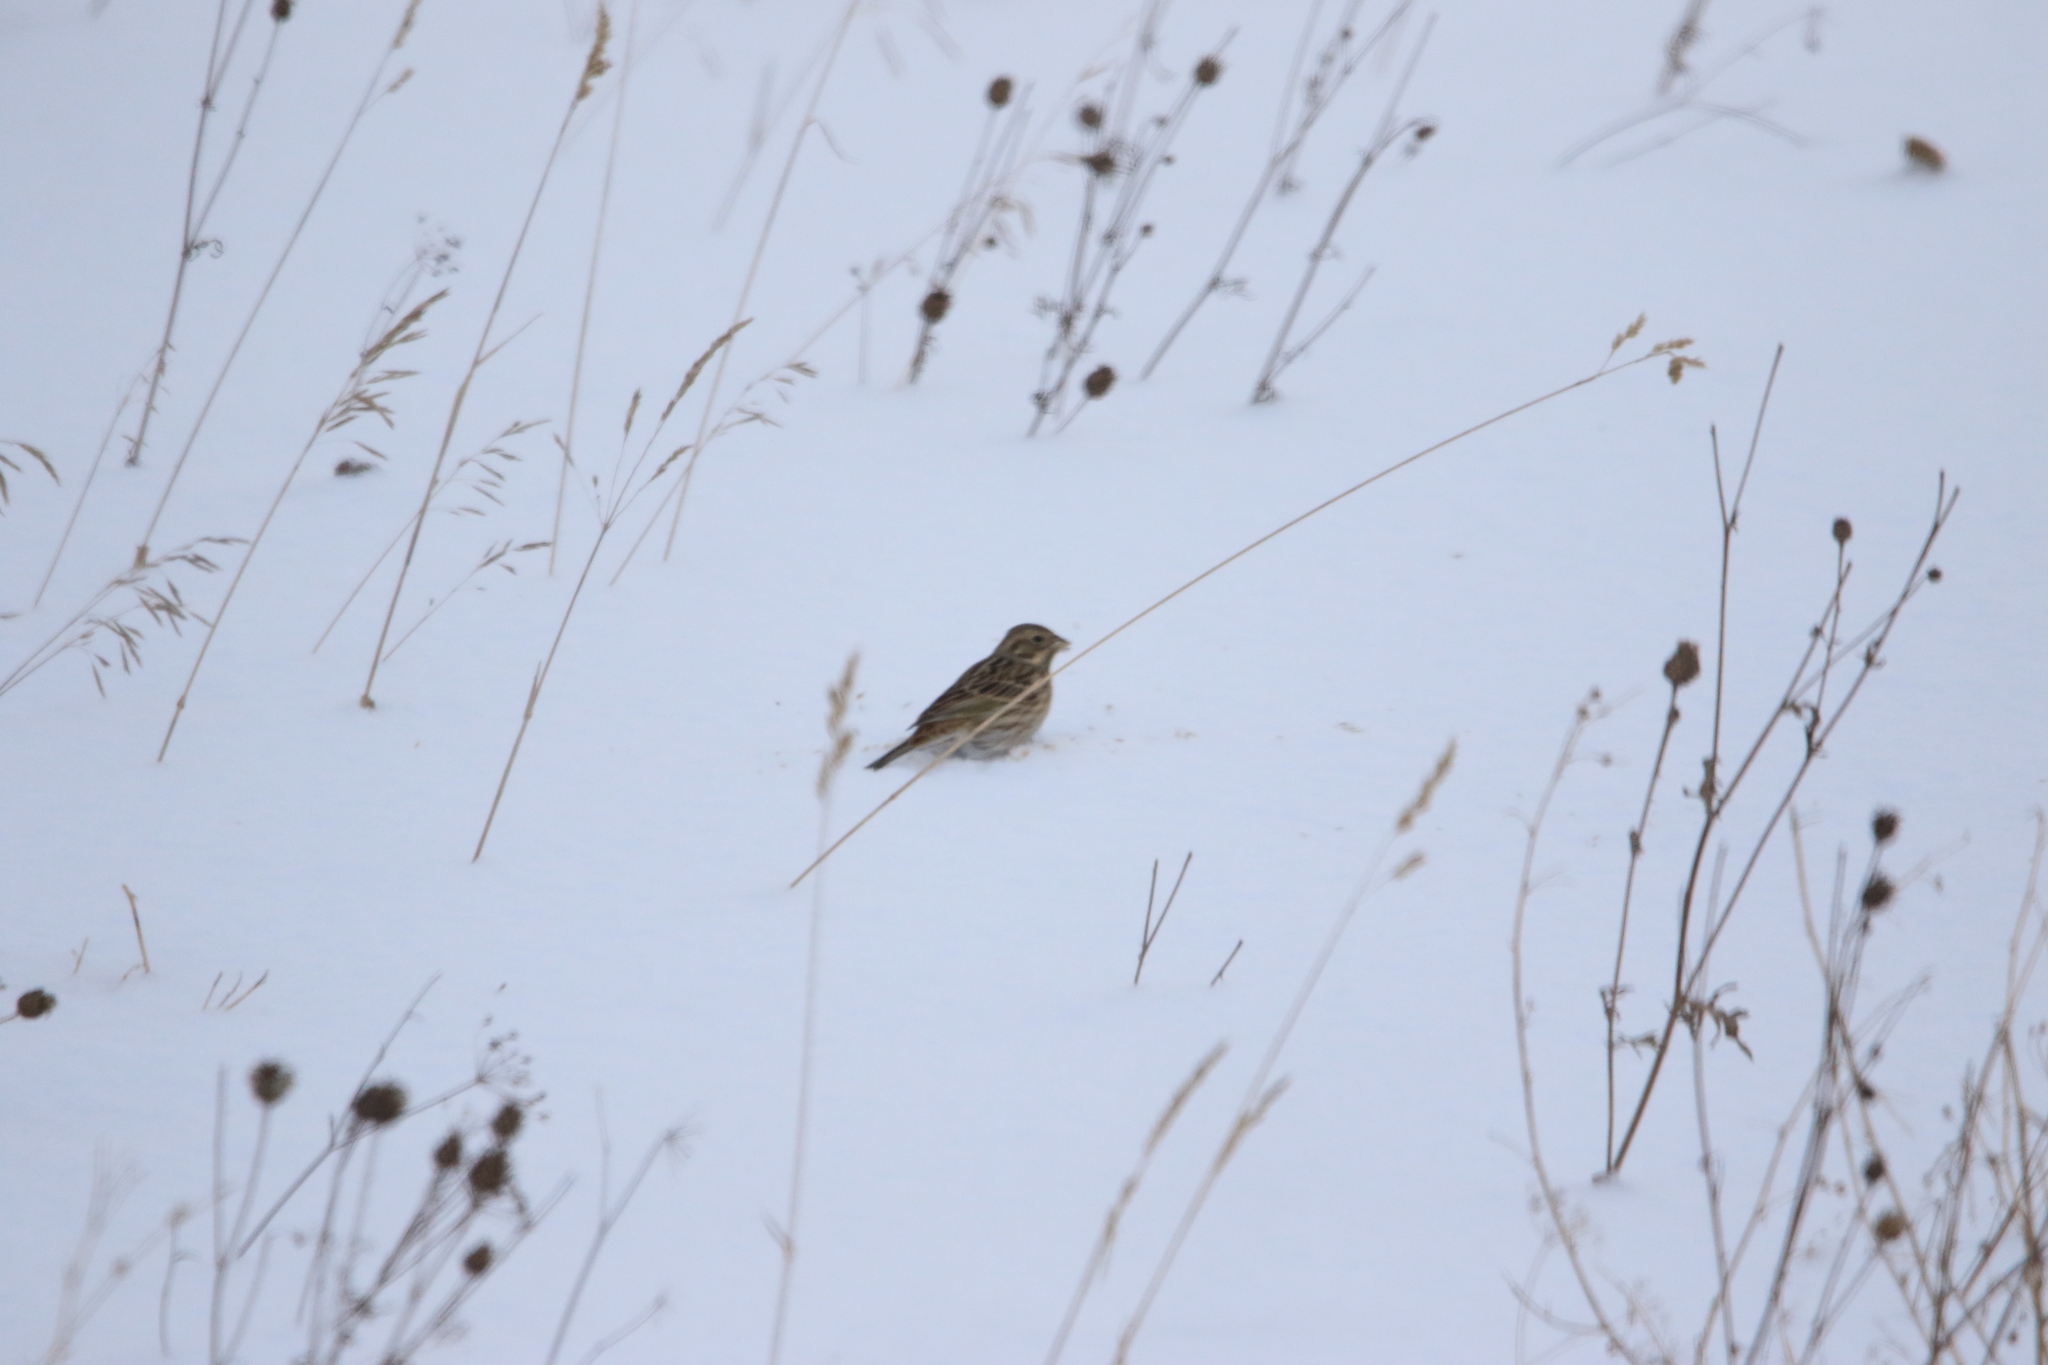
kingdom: Animalia
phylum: Chordata
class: Aves
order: Passeriformes
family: Emberizidae
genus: Emberiza
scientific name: Emberiza citrinella
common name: Yellowhammer
